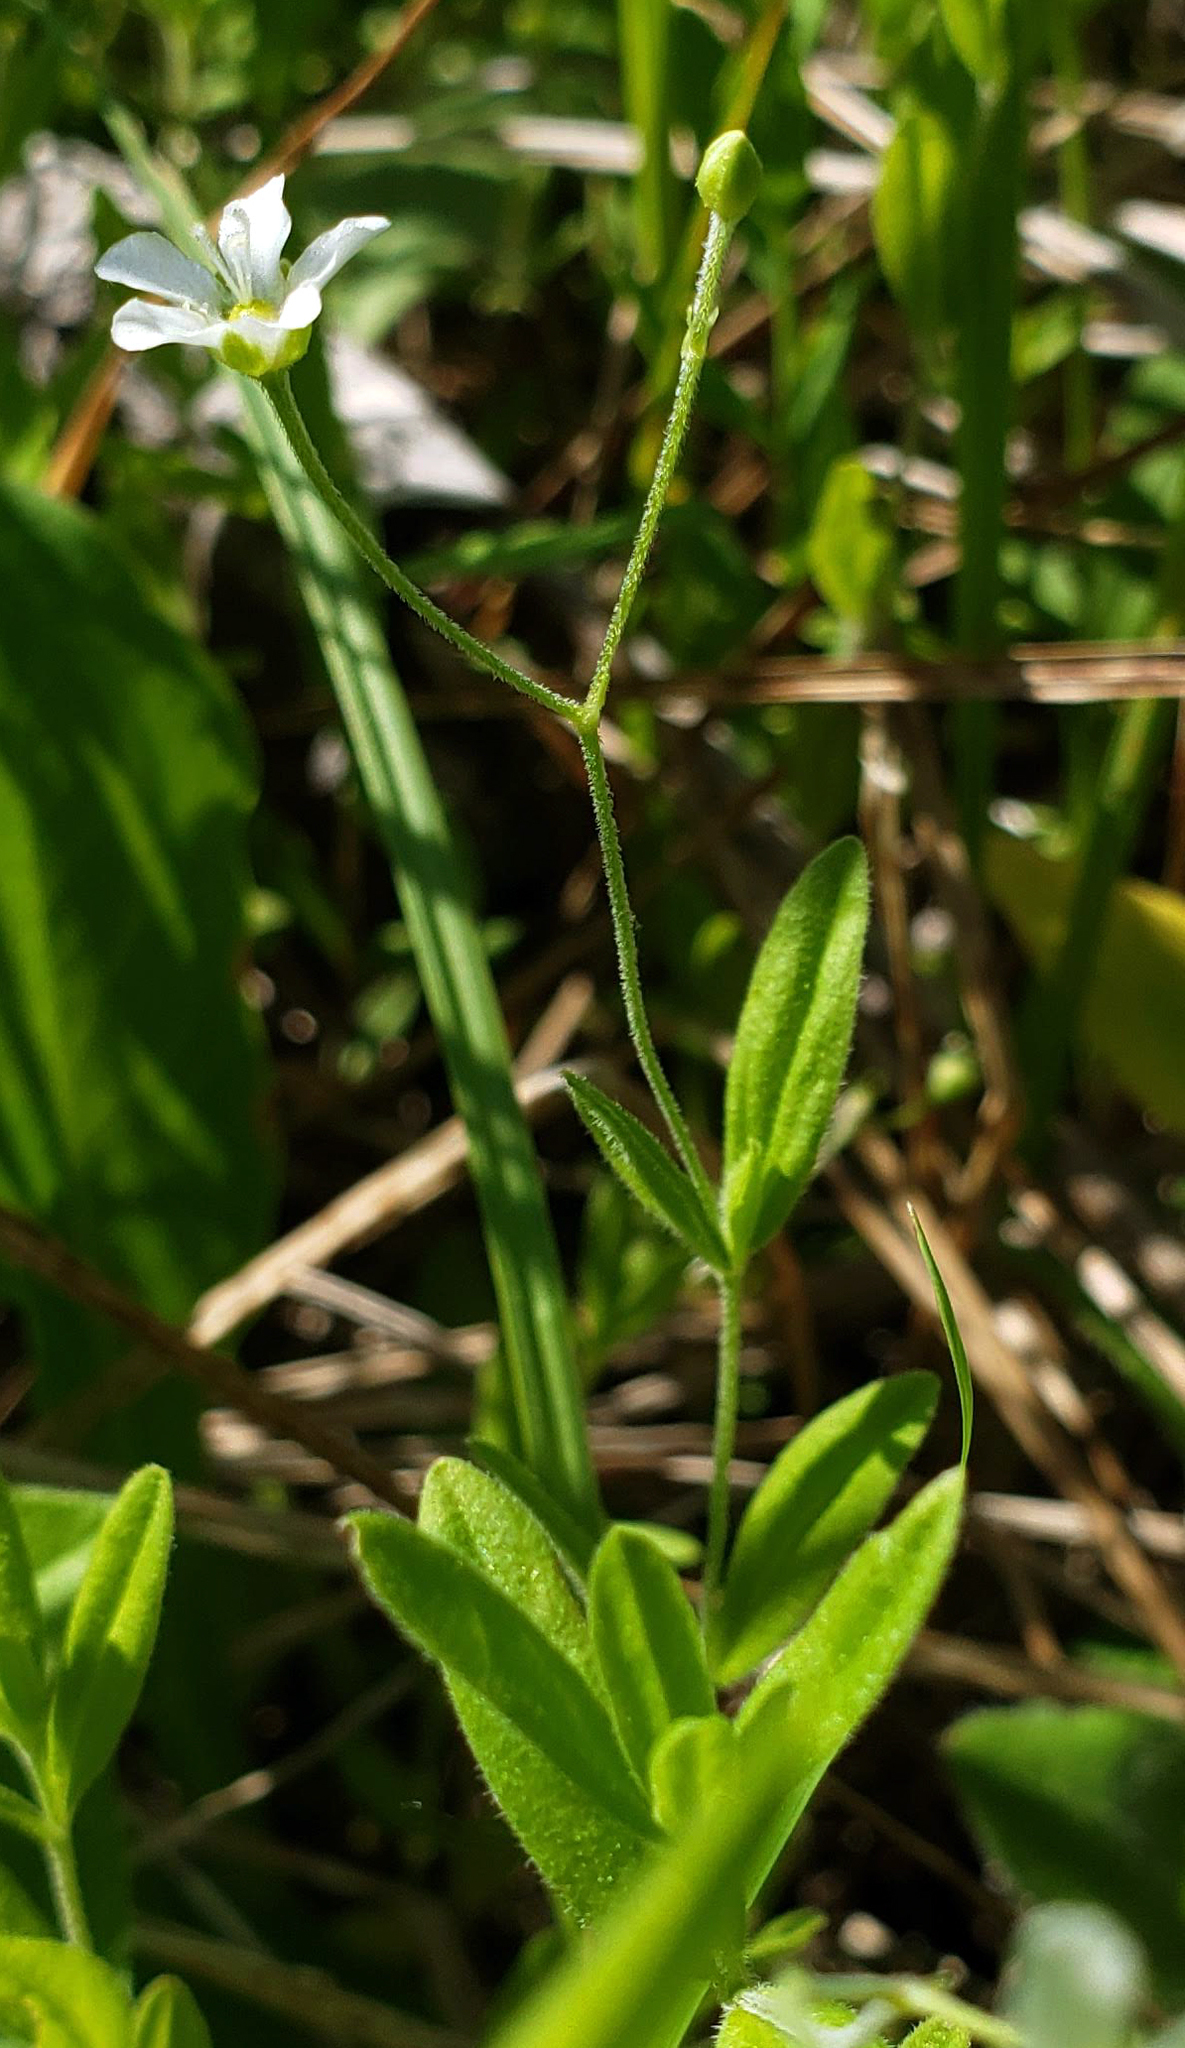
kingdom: Plantae
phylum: Tracheophyta
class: Magnoliopsida
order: Caryophyllales
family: Caryophyllaceae
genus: Moehringia
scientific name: Moehringia lateriflora
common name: Blunt-leaved sandwort
